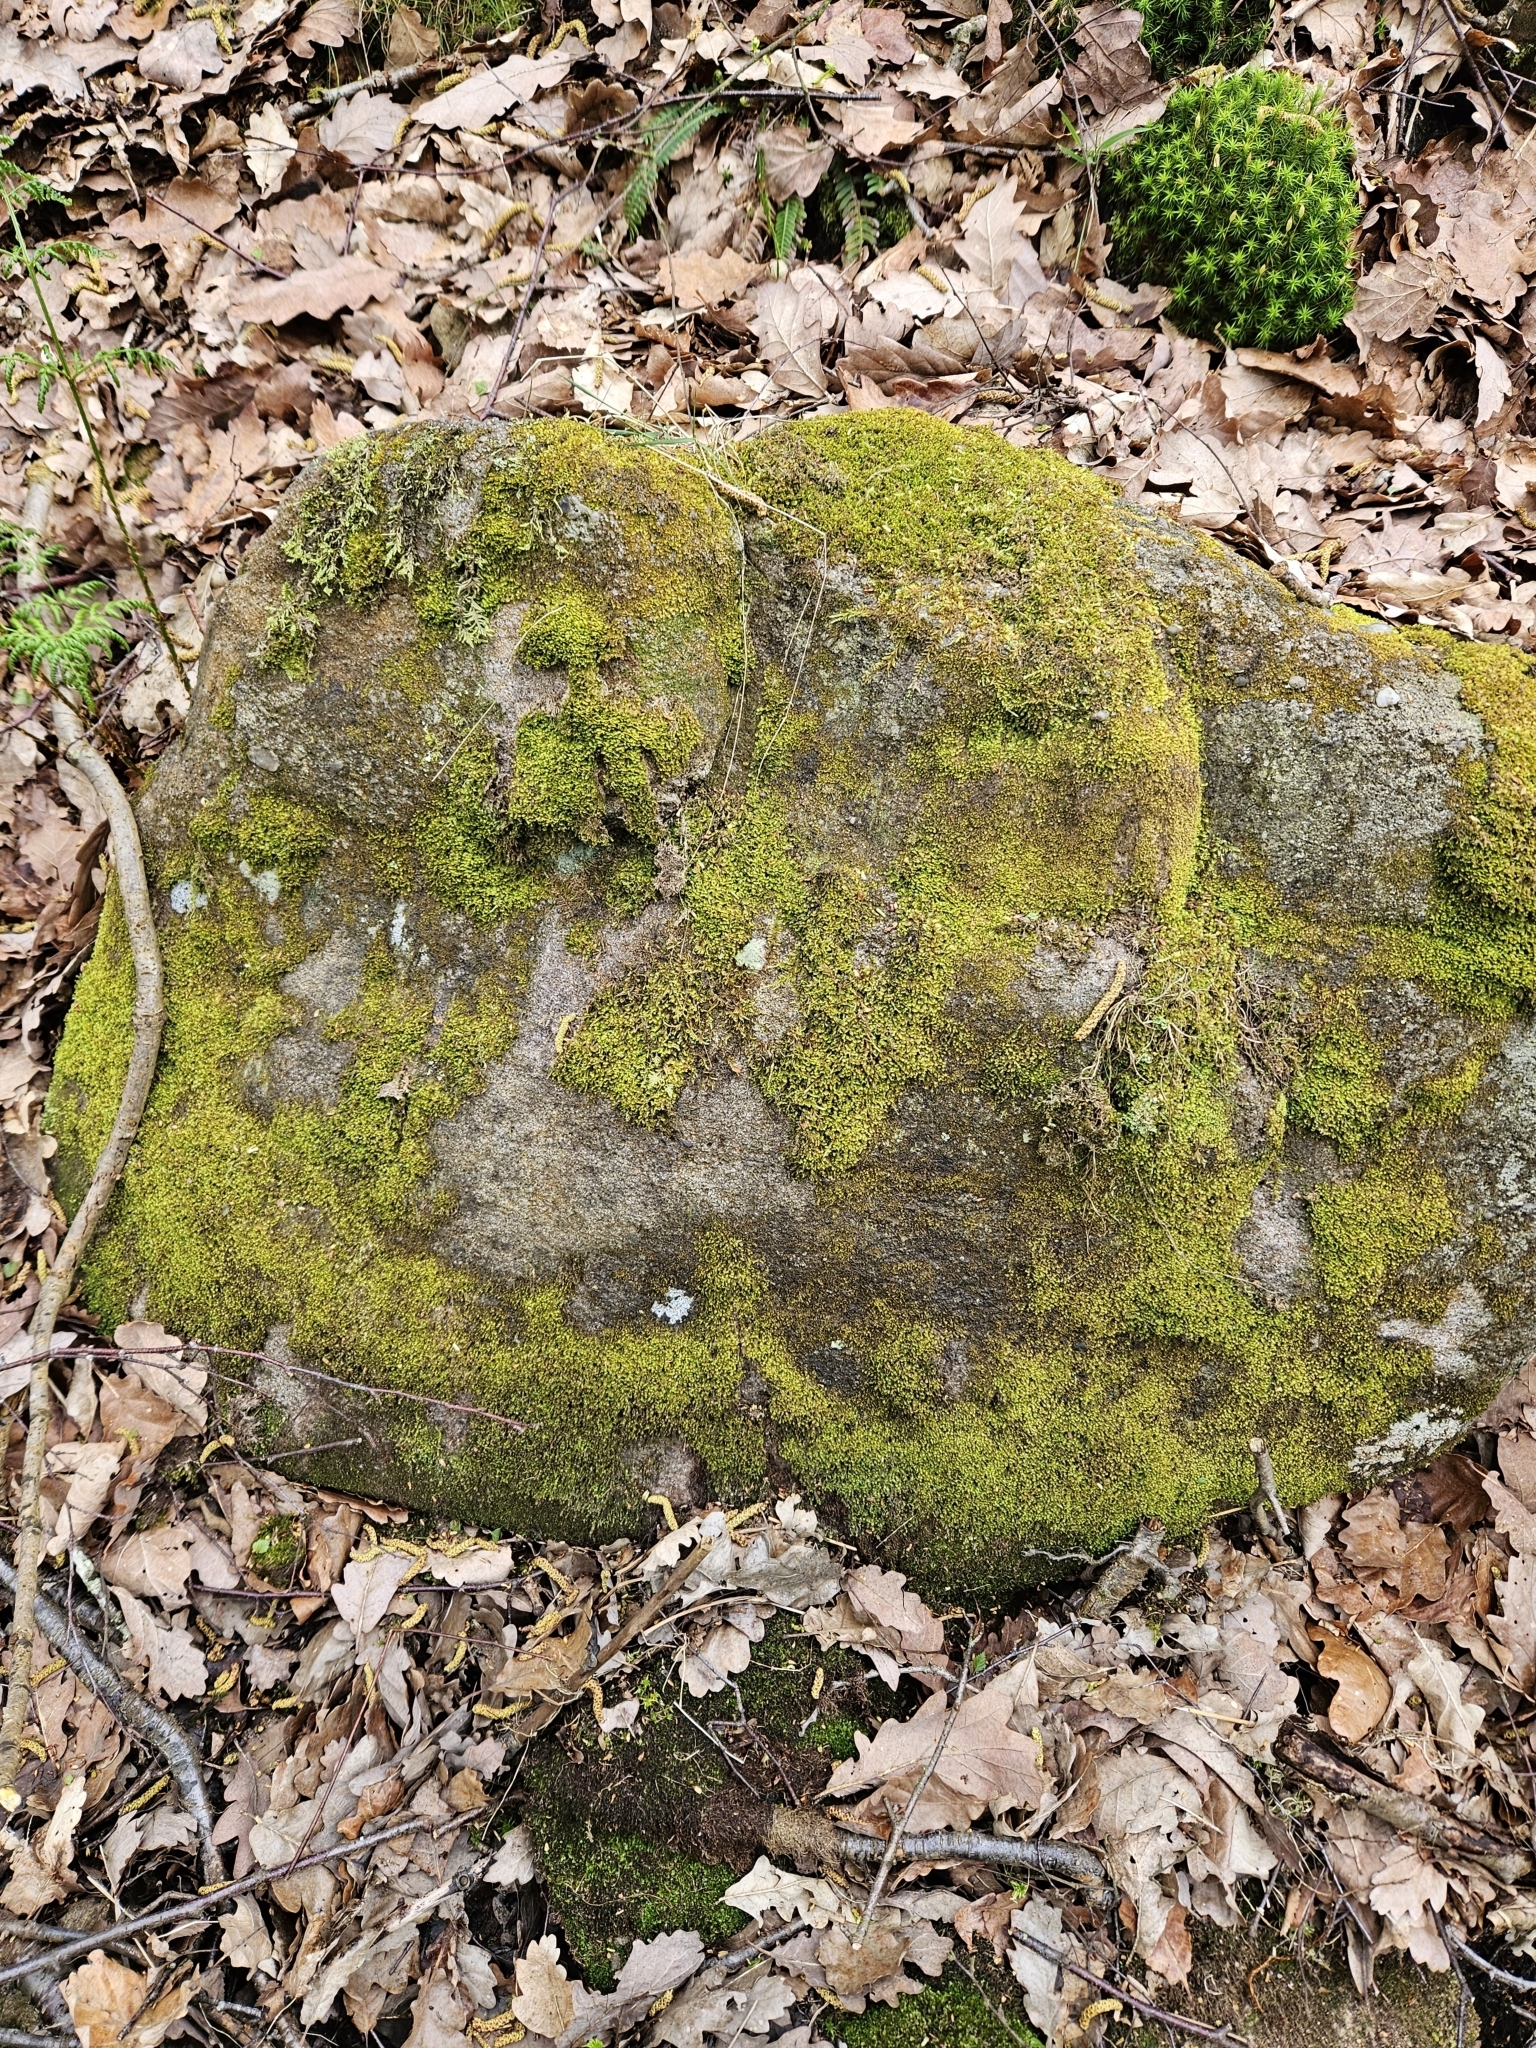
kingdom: Plantae
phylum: Marchantiophyta
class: Jungermanniopsida
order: Jungermanniales
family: Scapaniaceae
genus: Diplophyllum
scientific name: Diplophyllum albicans
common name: White earwort
